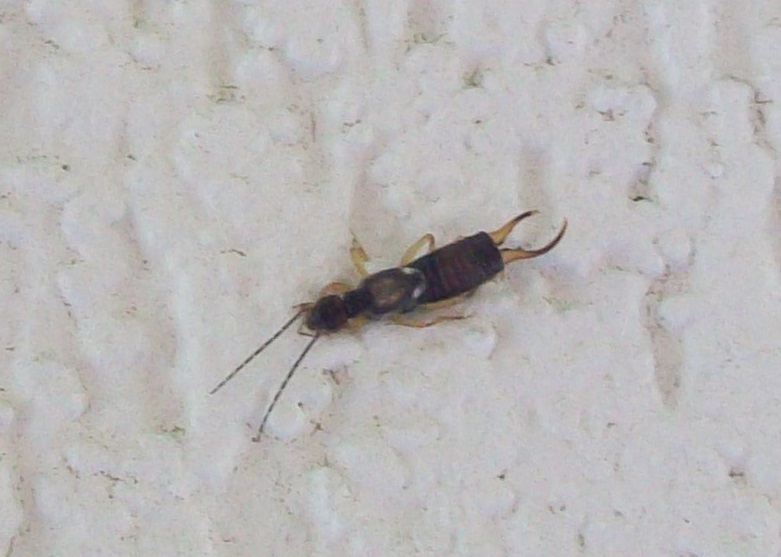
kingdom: Animalia
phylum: Arthropoda
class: Insecta
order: Dermaptera
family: Forficulidae
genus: Forficula
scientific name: Forficula
